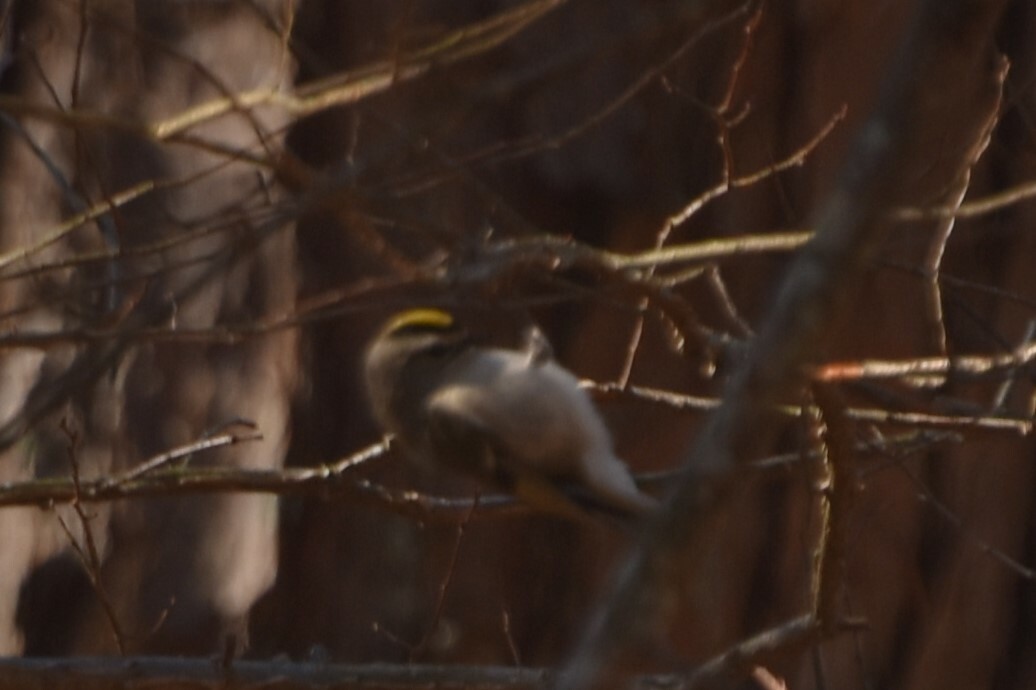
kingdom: Animalia
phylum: Chordata
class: Aves
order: Passeriformes
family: Regulidae
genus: Regulus
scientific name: Regulus satrapa
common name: Golden-crowned kinglet
